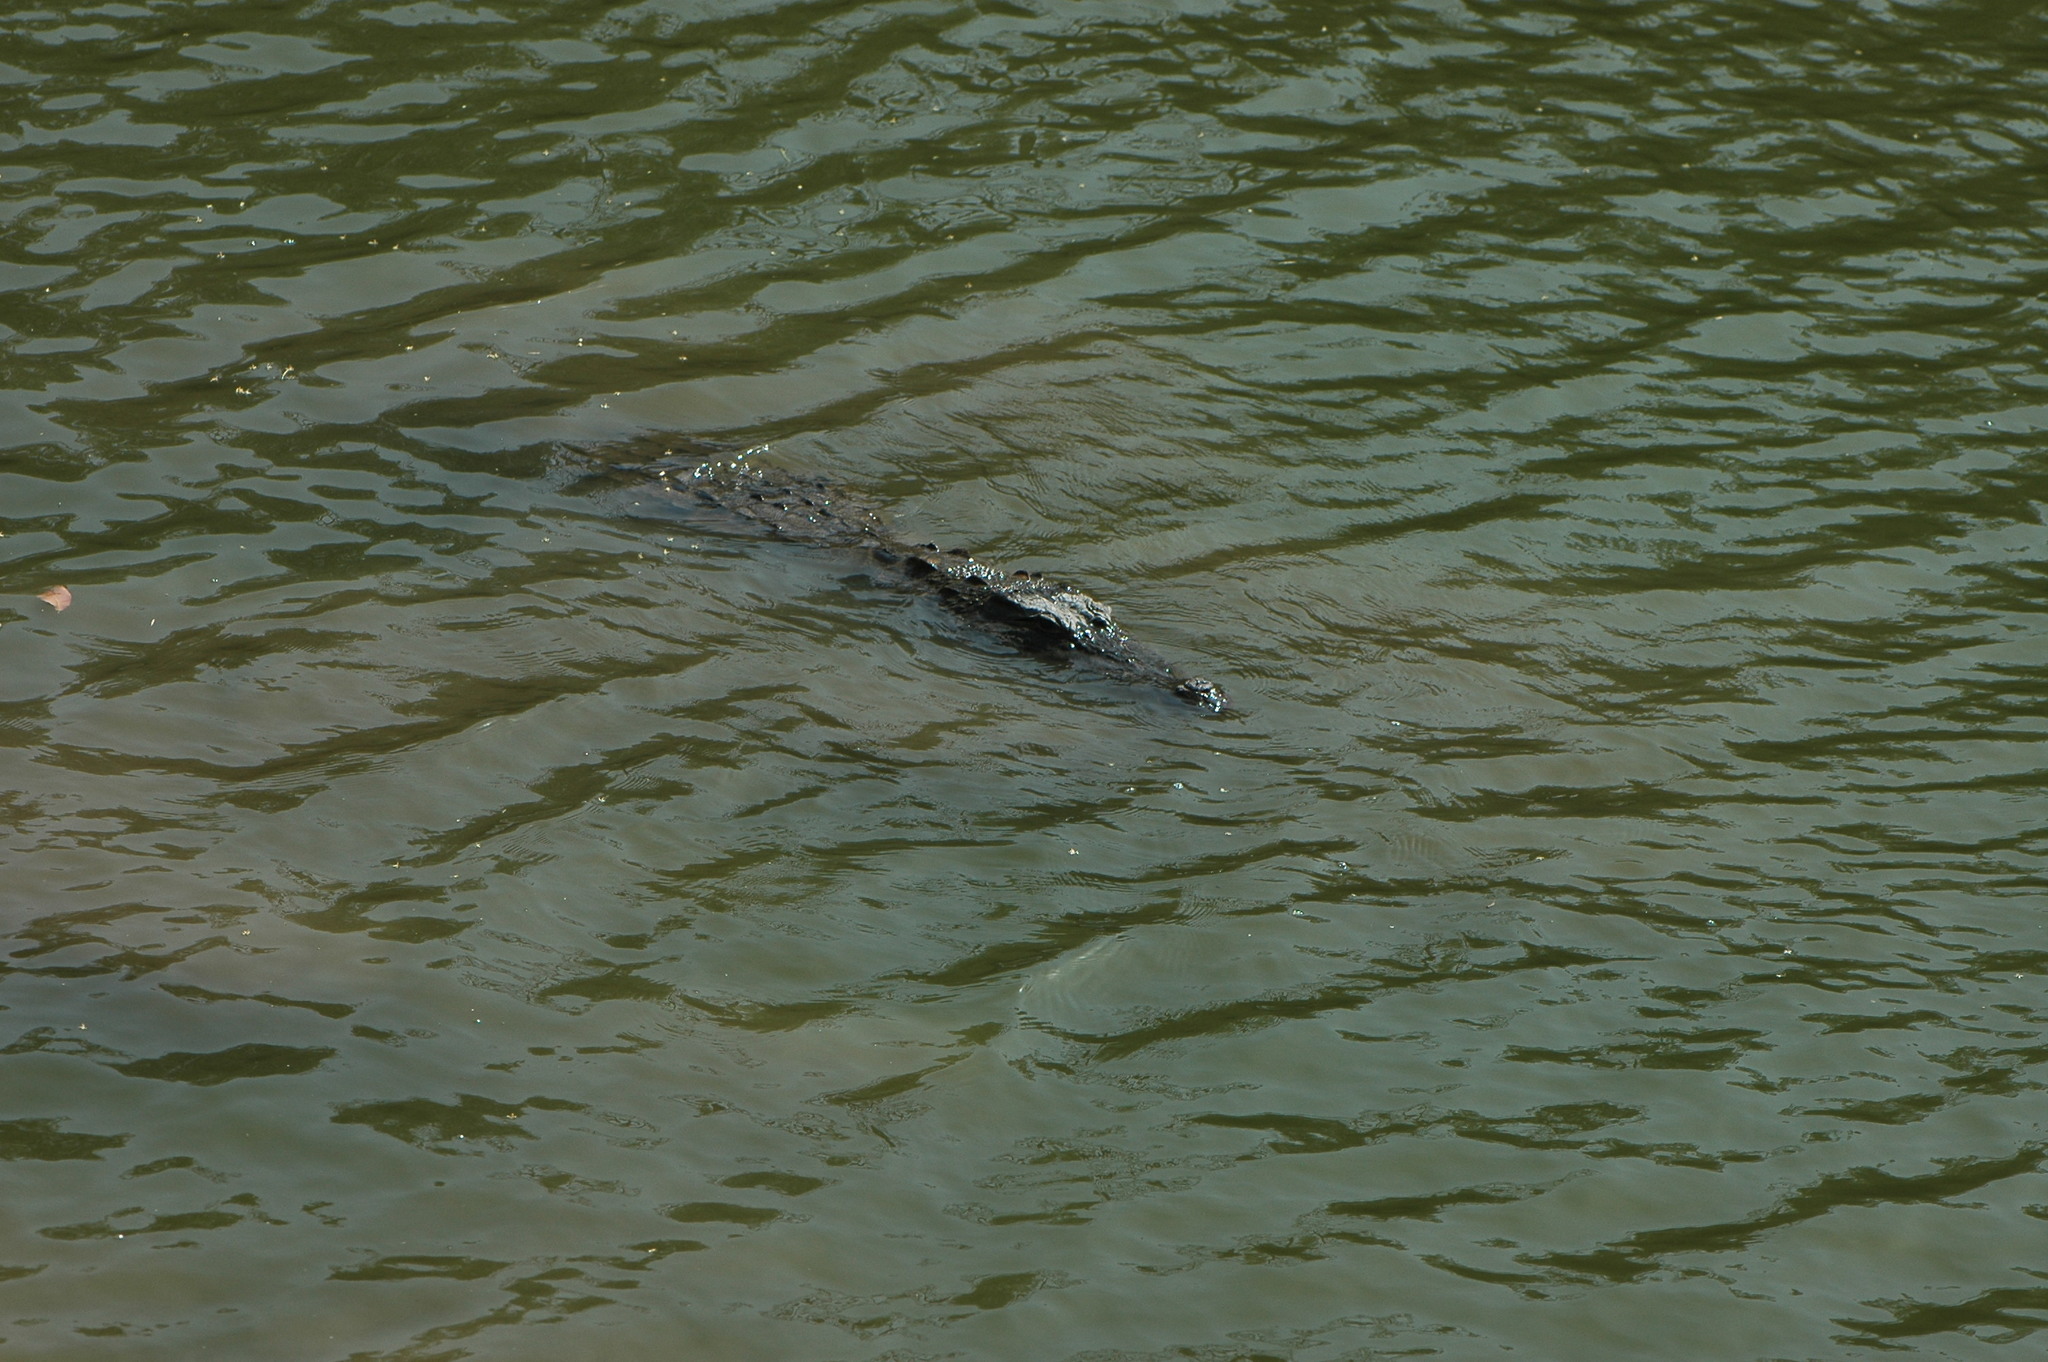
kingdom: Animalia
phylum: Chordata
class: Crocodylia
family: Crocodylidae
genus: Crocodylus
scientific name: Crocodylus suchus
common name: West african crocodile
